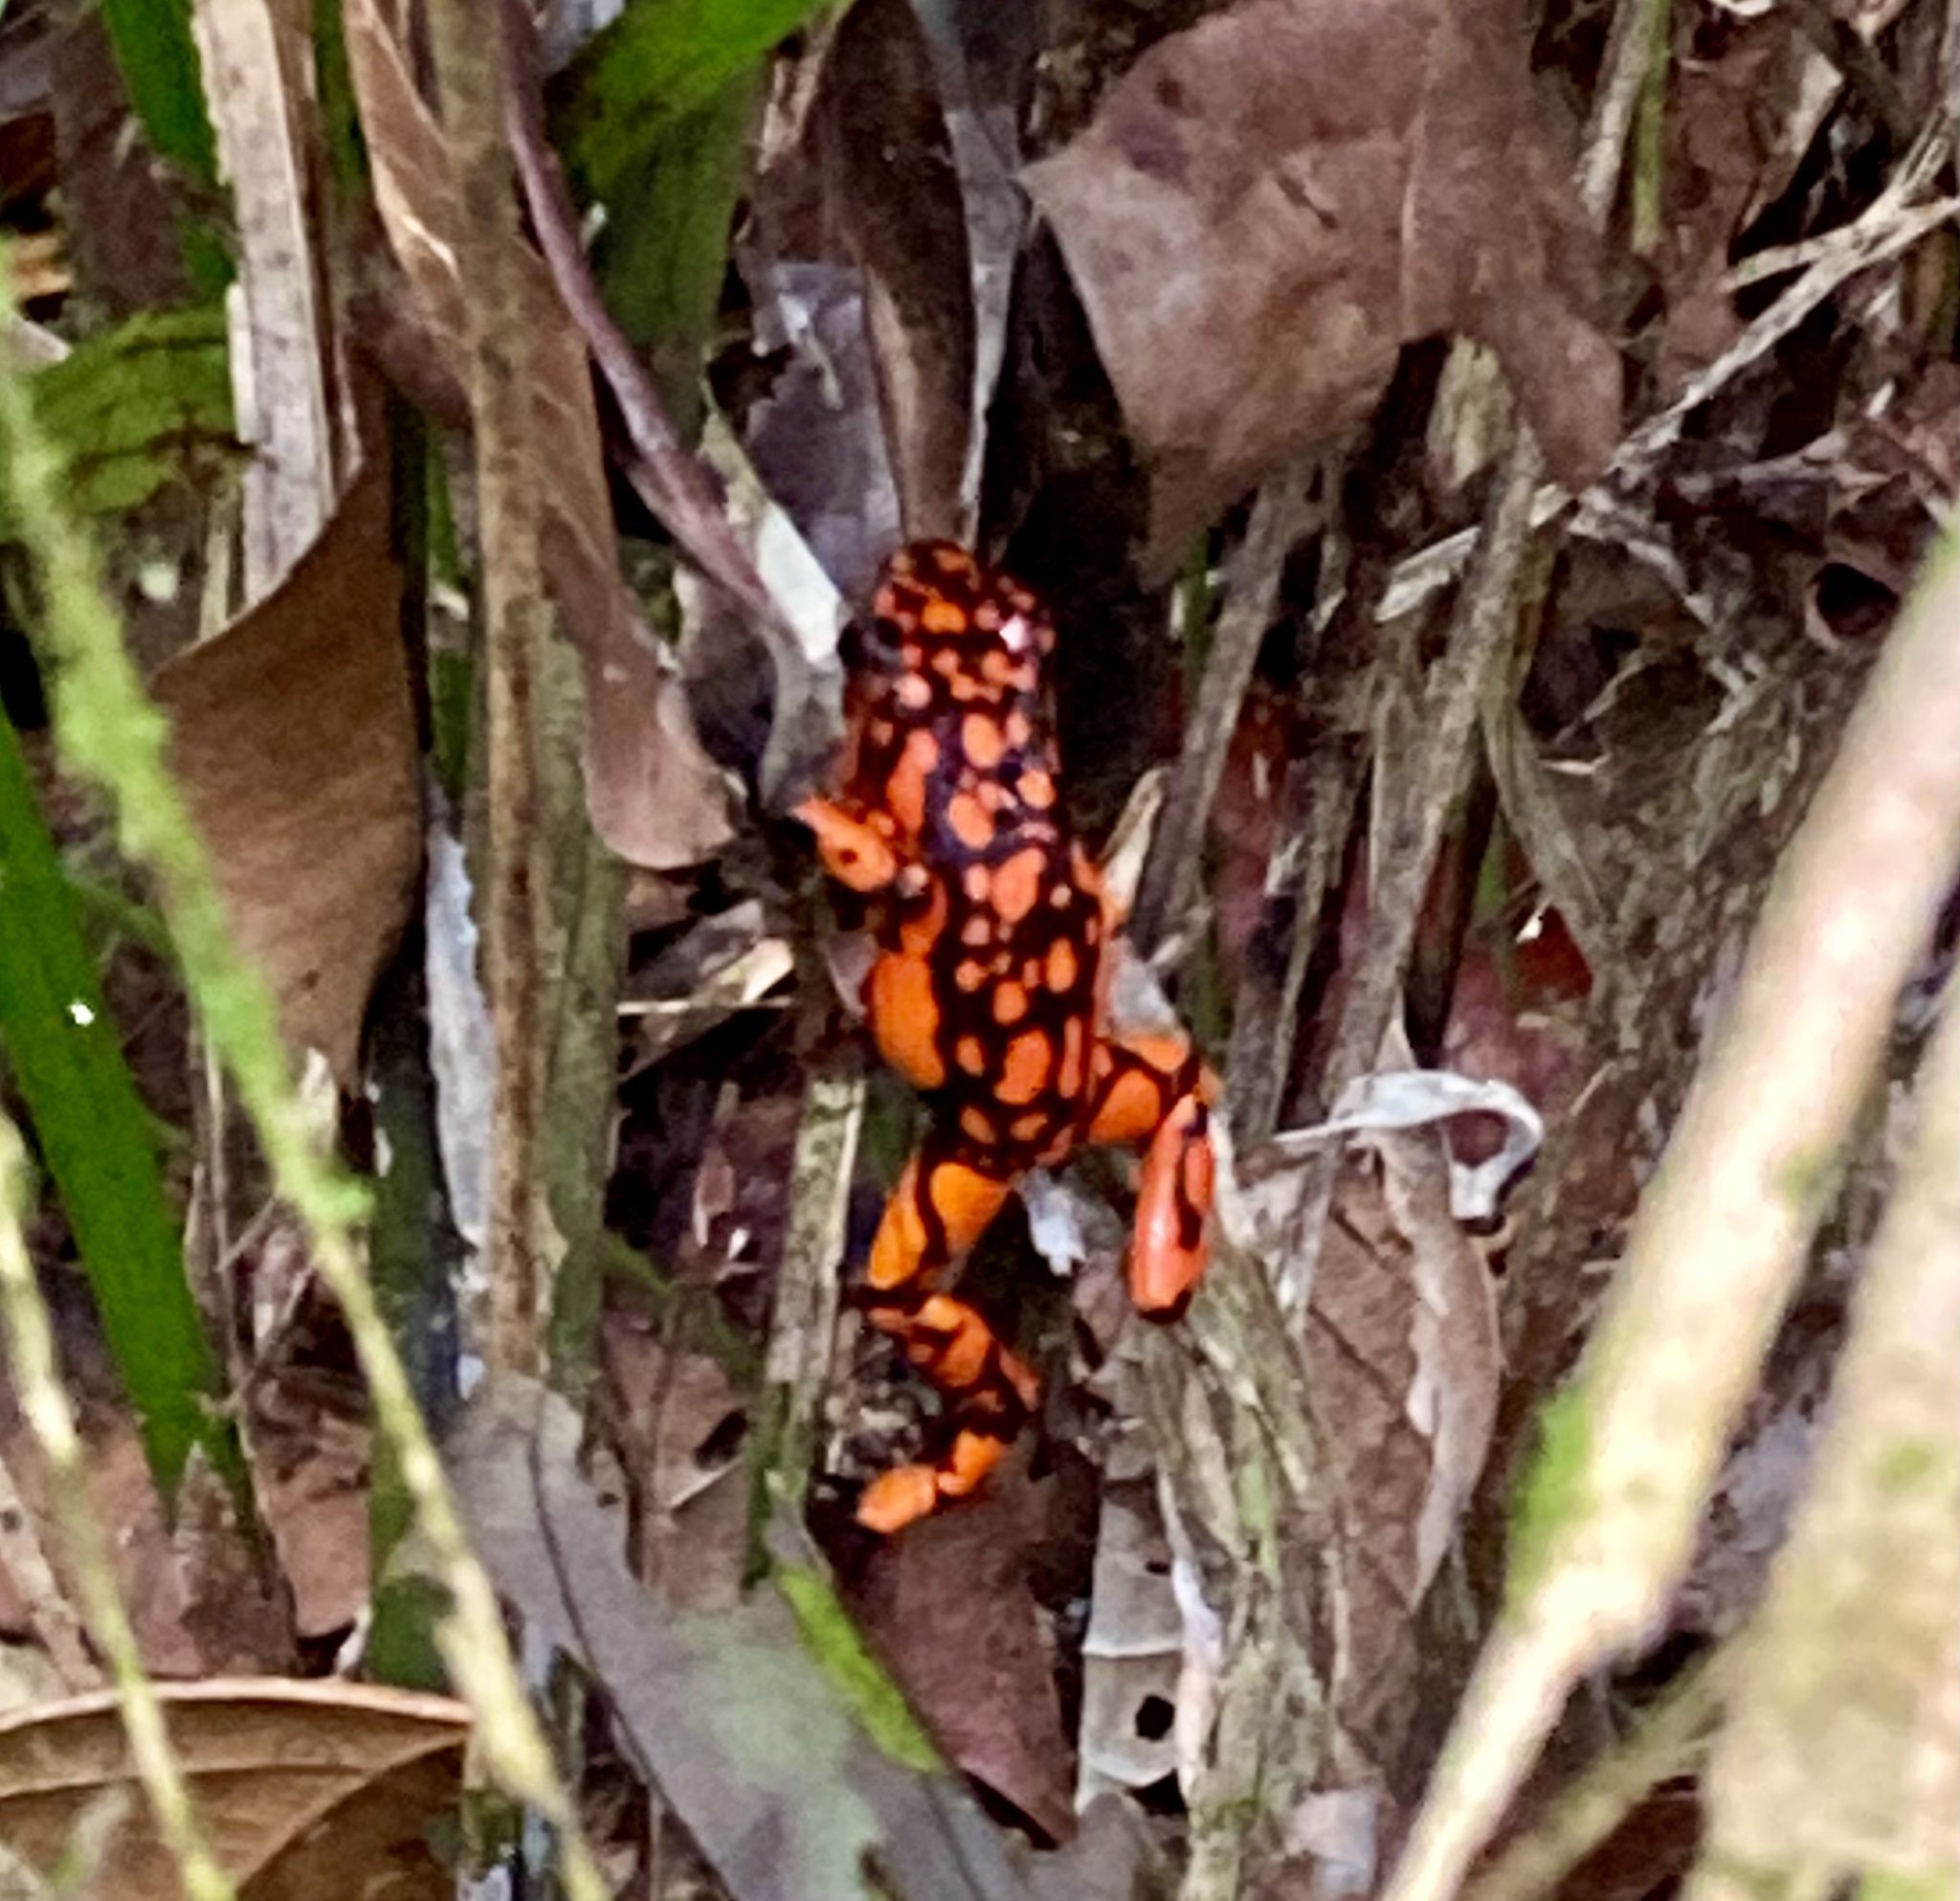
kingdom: Animalia
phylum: Chordata
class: Amphibia
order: Anura
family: Dendrobatidae
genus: Oophaga
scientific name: Oophaga solanensis
